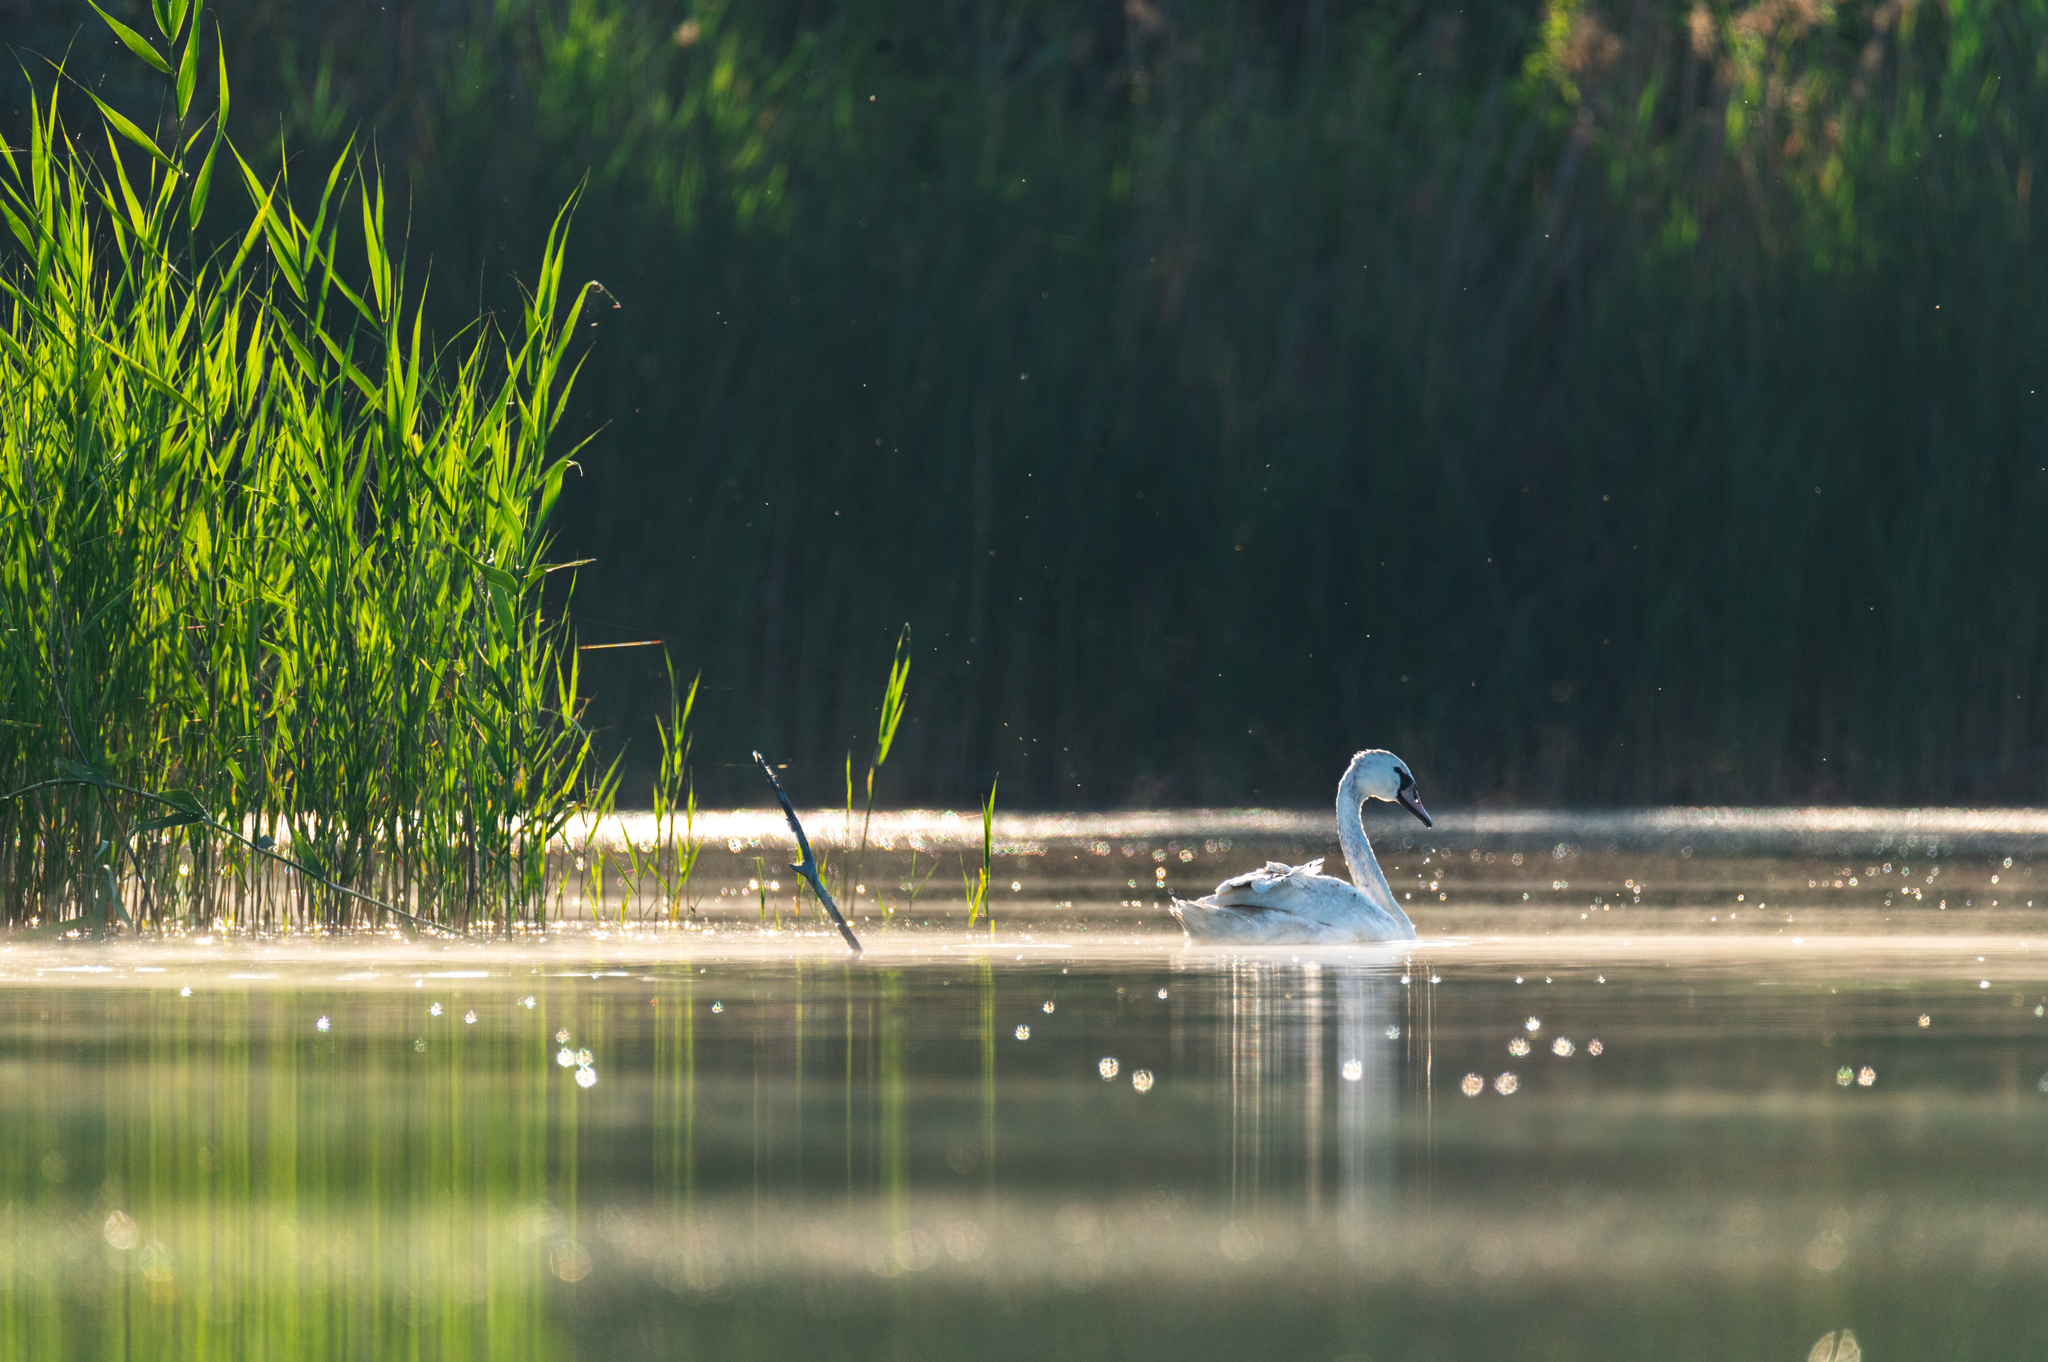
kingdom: Animalia
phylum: Chordata
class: Aves
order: Anseriformes
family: Anatidae
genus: Cygnus
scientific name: Cygnus olor
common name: Mute swan
